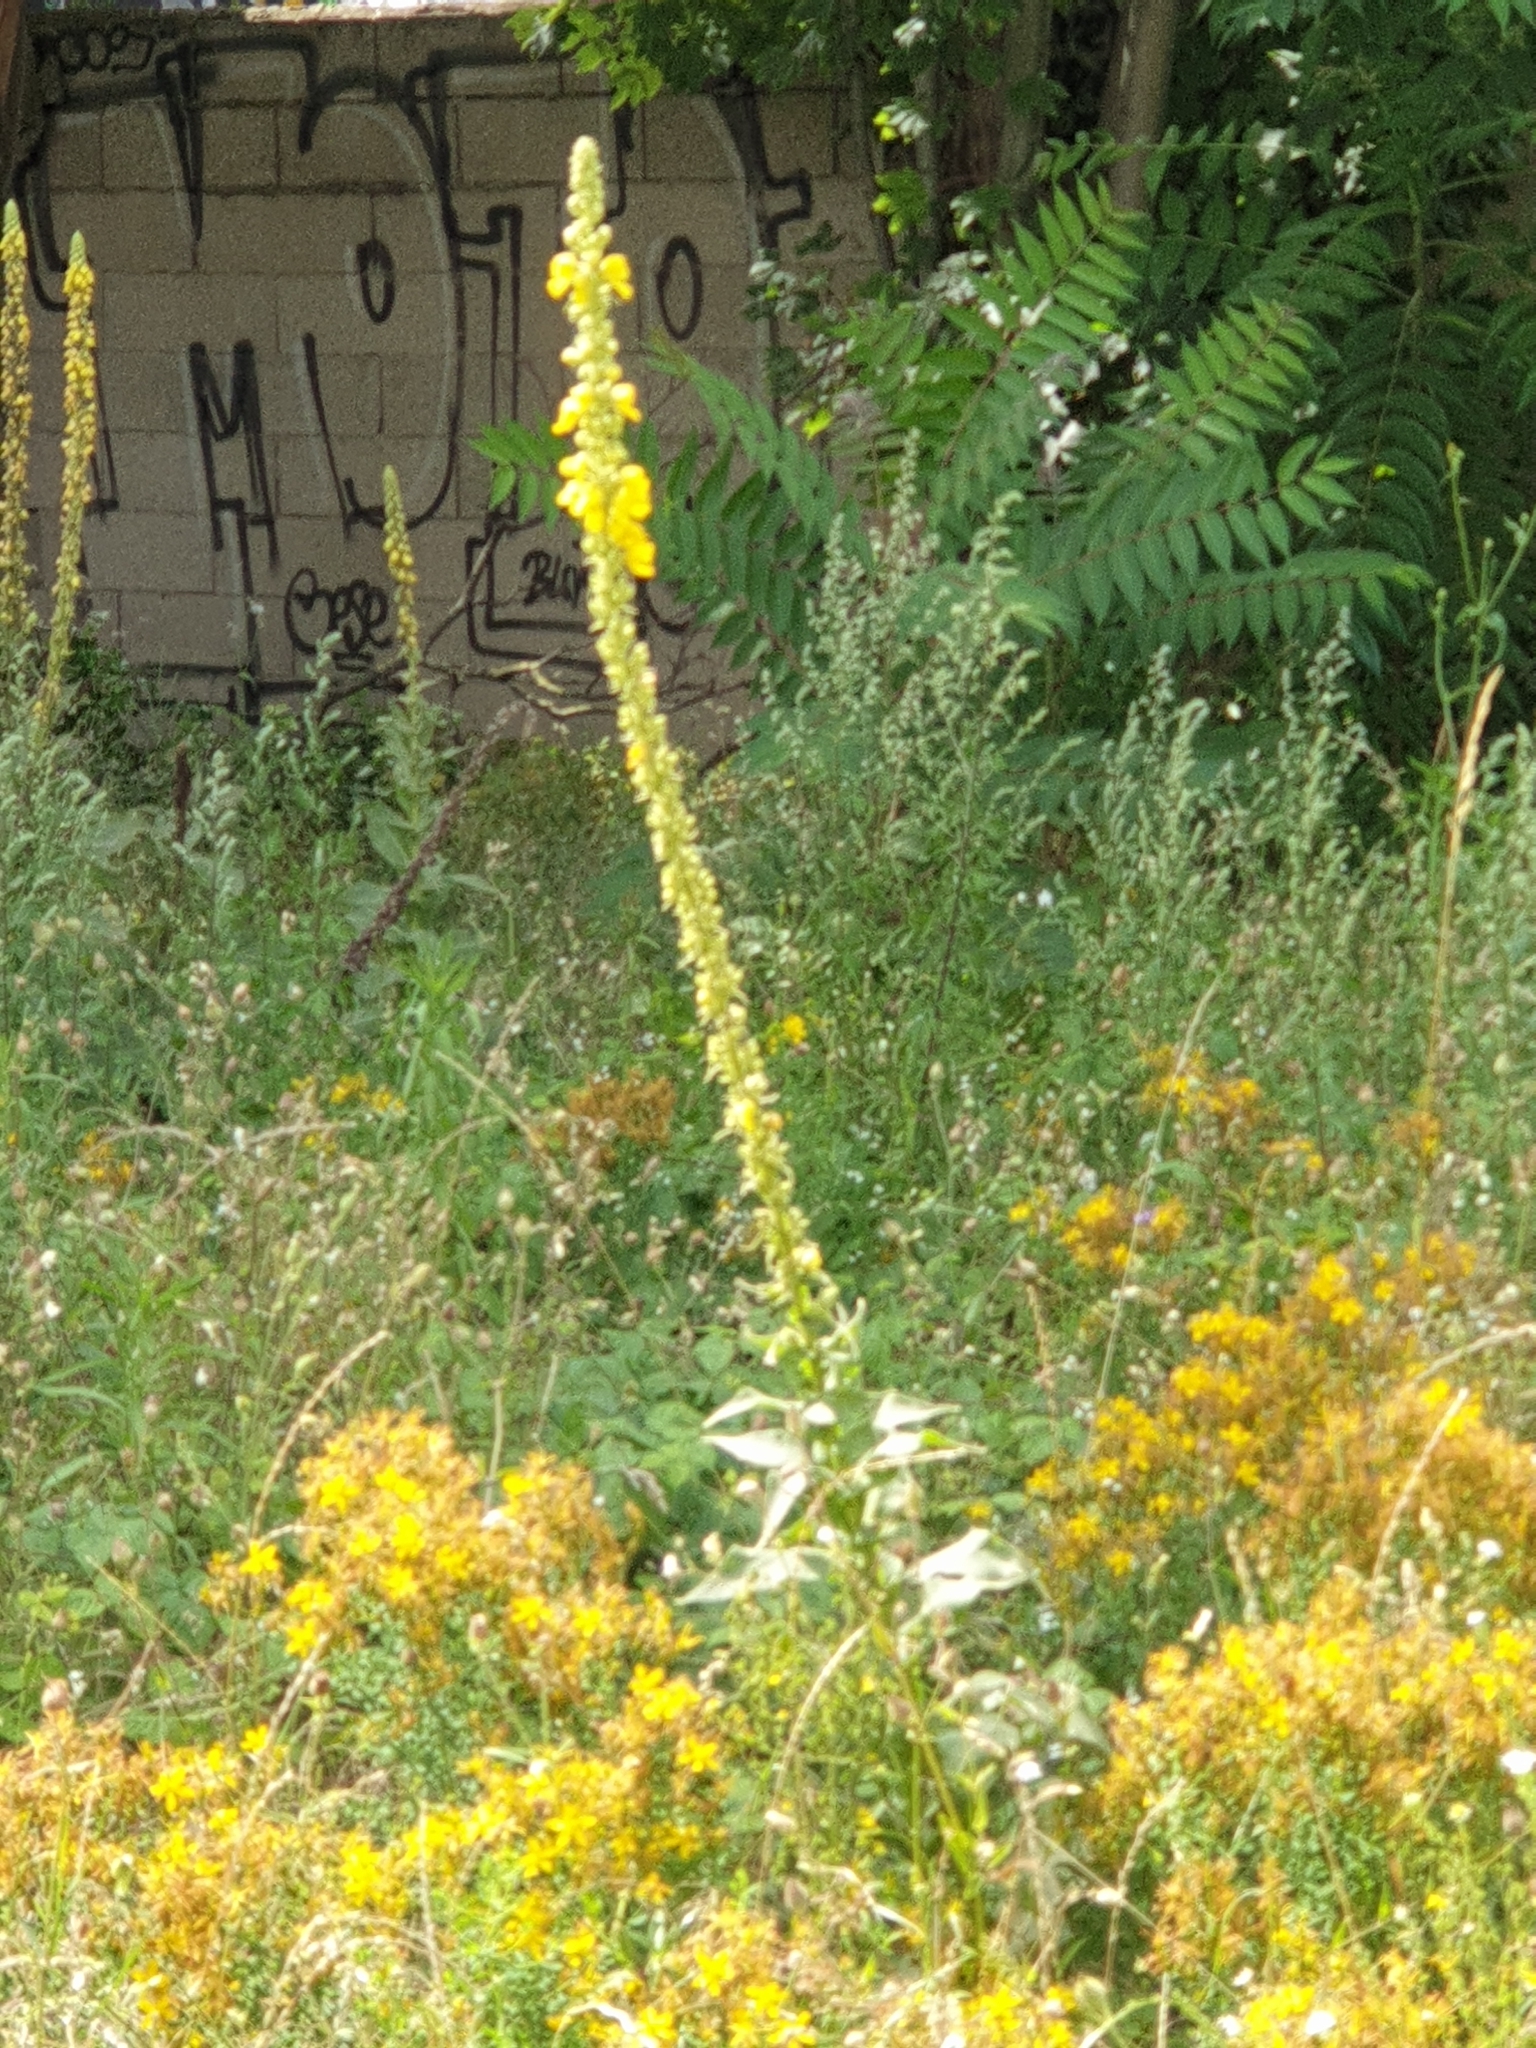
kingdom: Plantae
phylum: Tracheophyta
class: Magnoliopsida
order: Lamiales
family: Scrophulariaceae
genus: Verbascum
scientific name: Verbascum densiflorum
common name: Dense-flowered mullein
